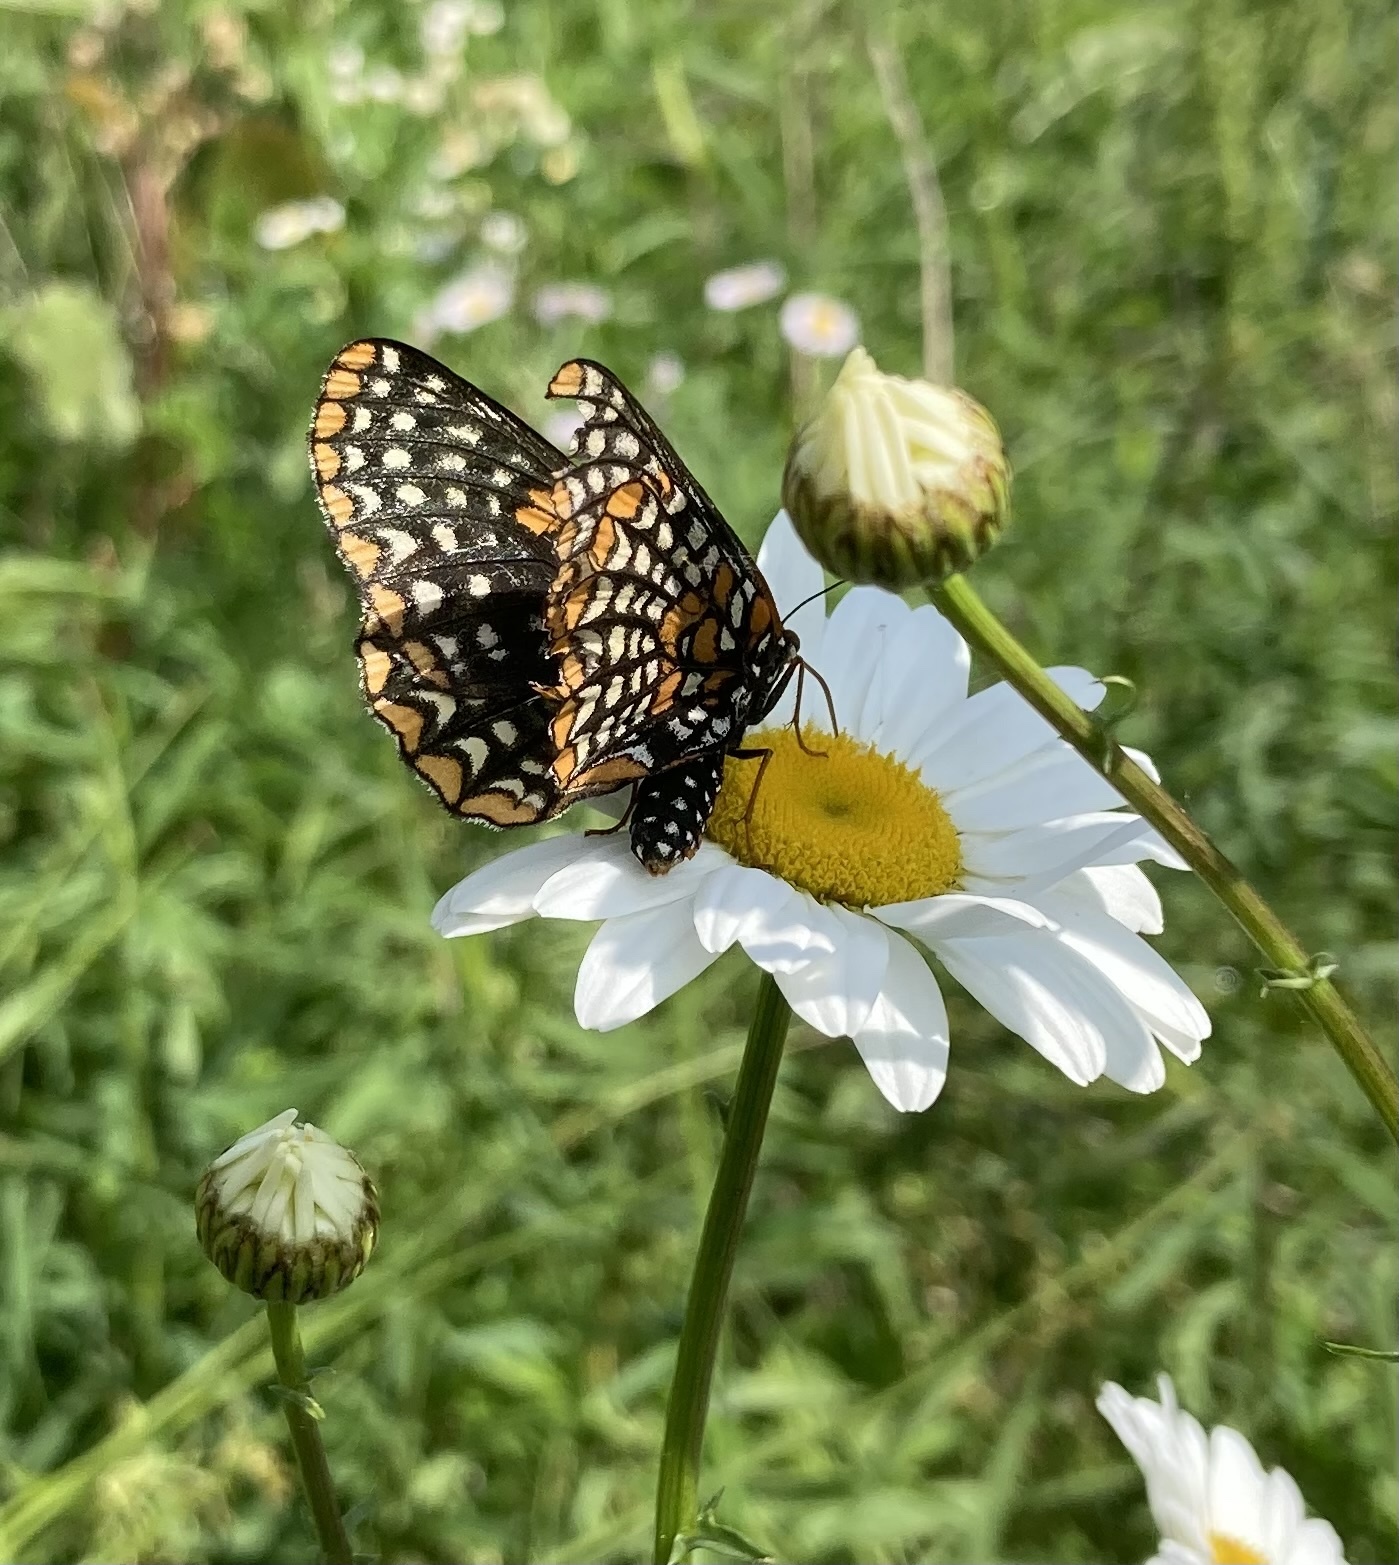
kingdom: Animalia
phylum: Arthropoda
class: Insecta
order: Lepidoptera
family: Nymphalidae
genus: Euphydryas
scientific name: Euphydryas phaeton
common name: Baltimore checkerspot
